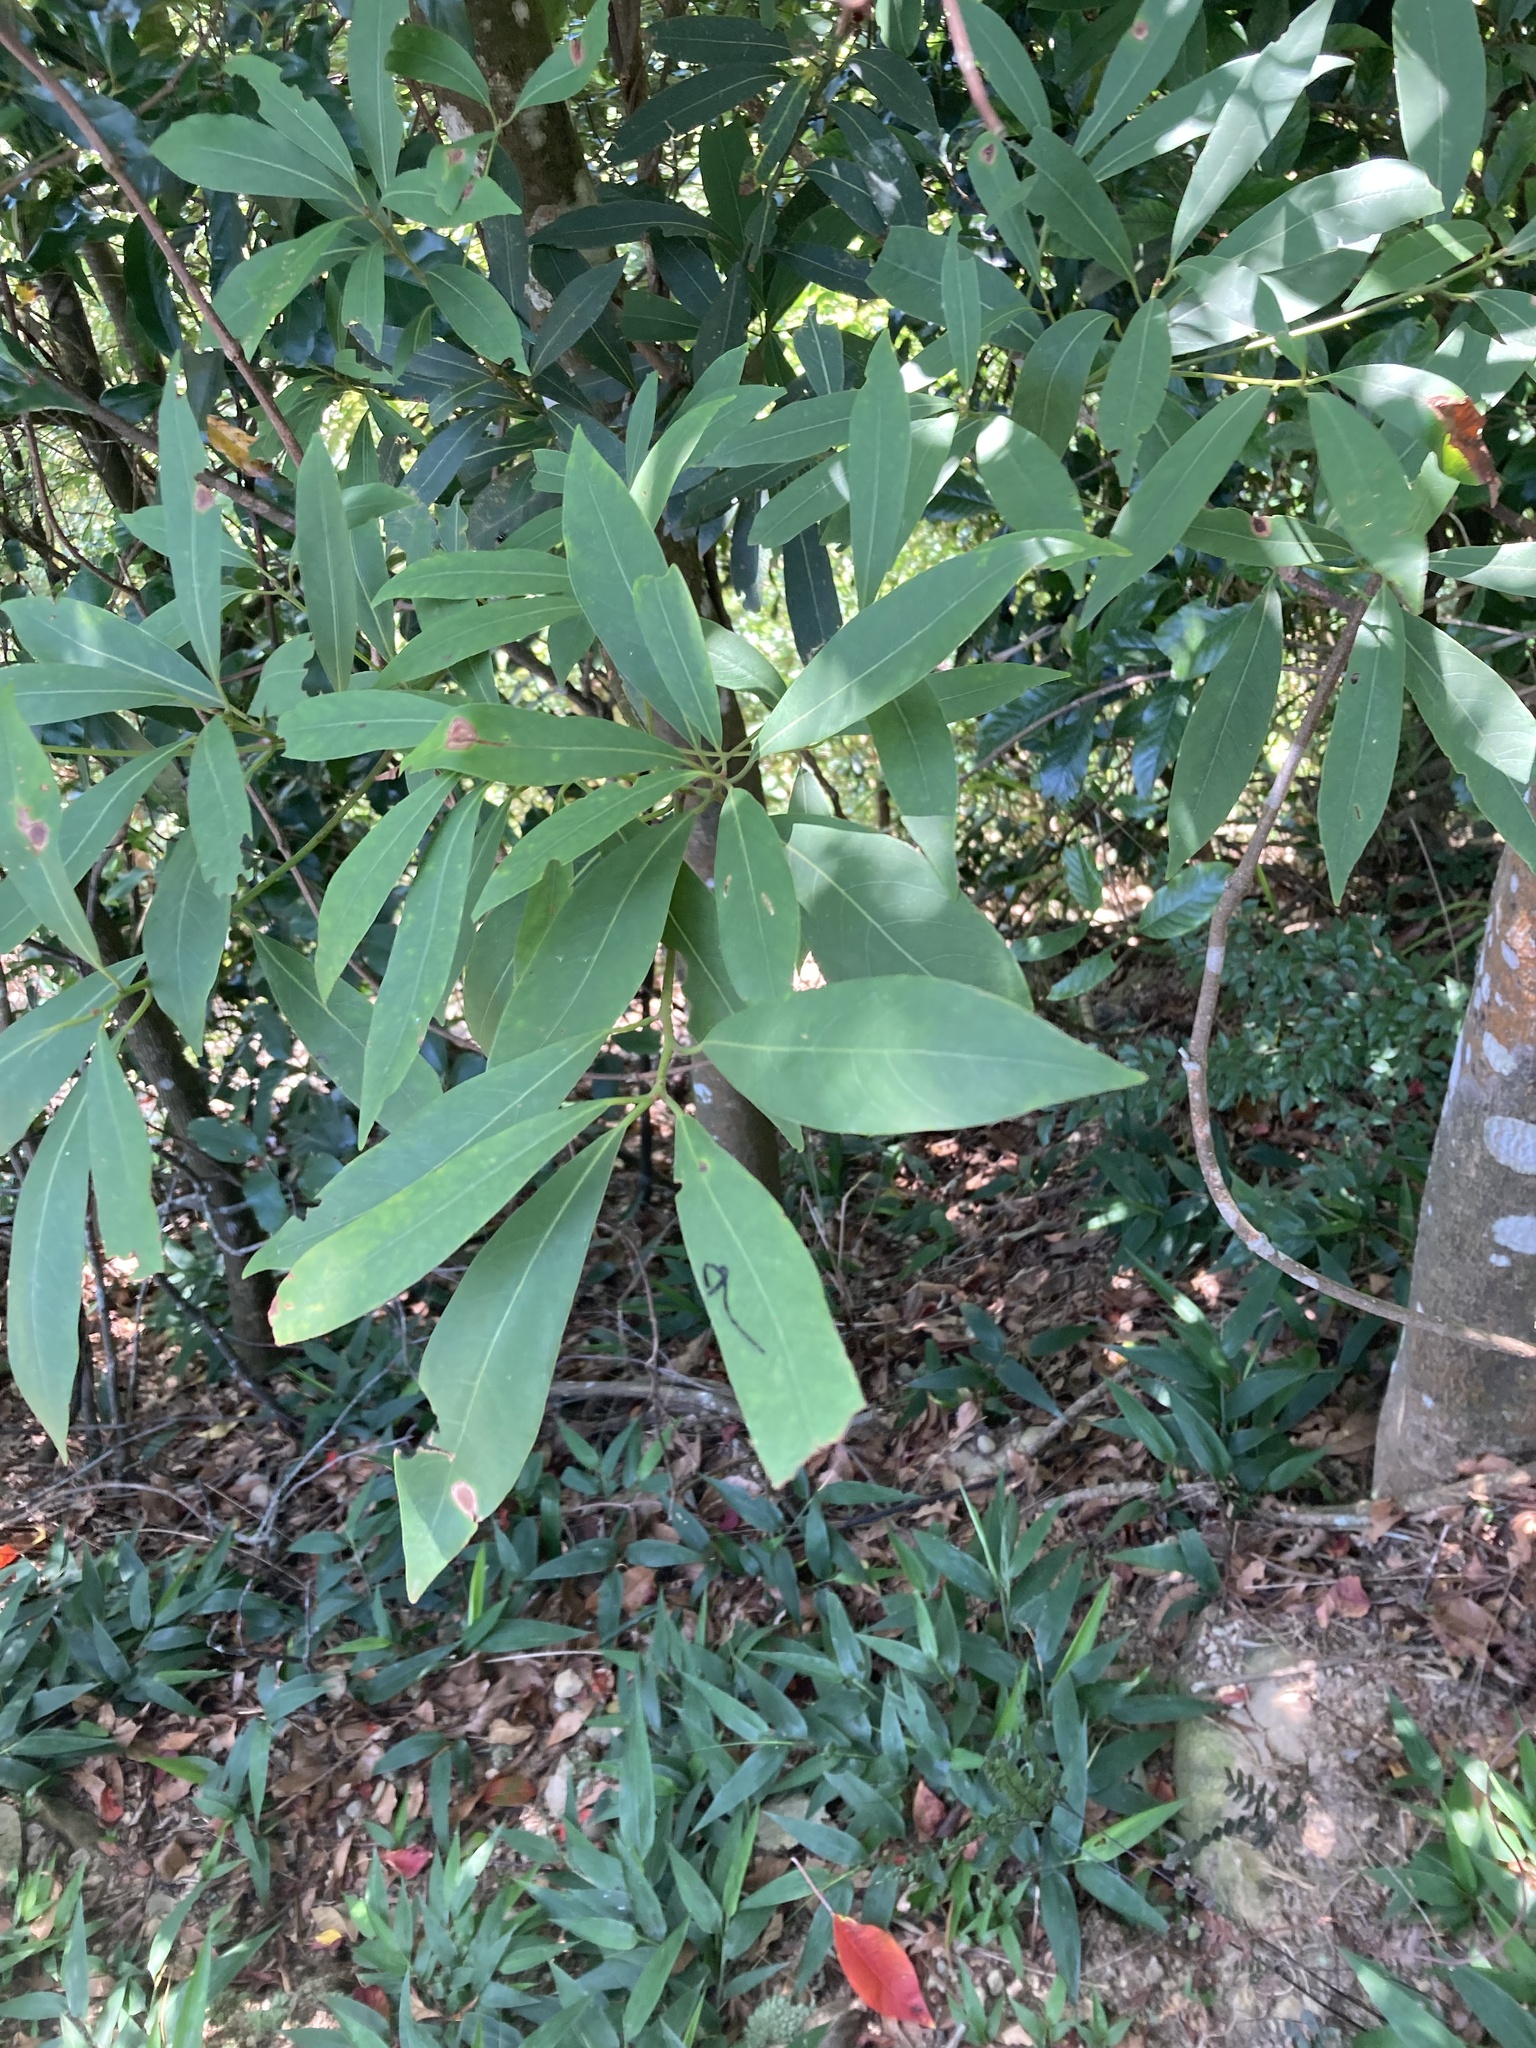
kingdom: Plantae
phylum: Tracheophyta
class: Magnoliopsida
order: Laurales
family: Lauraceae
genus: Machilus
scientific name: Machilus zuihoensis
